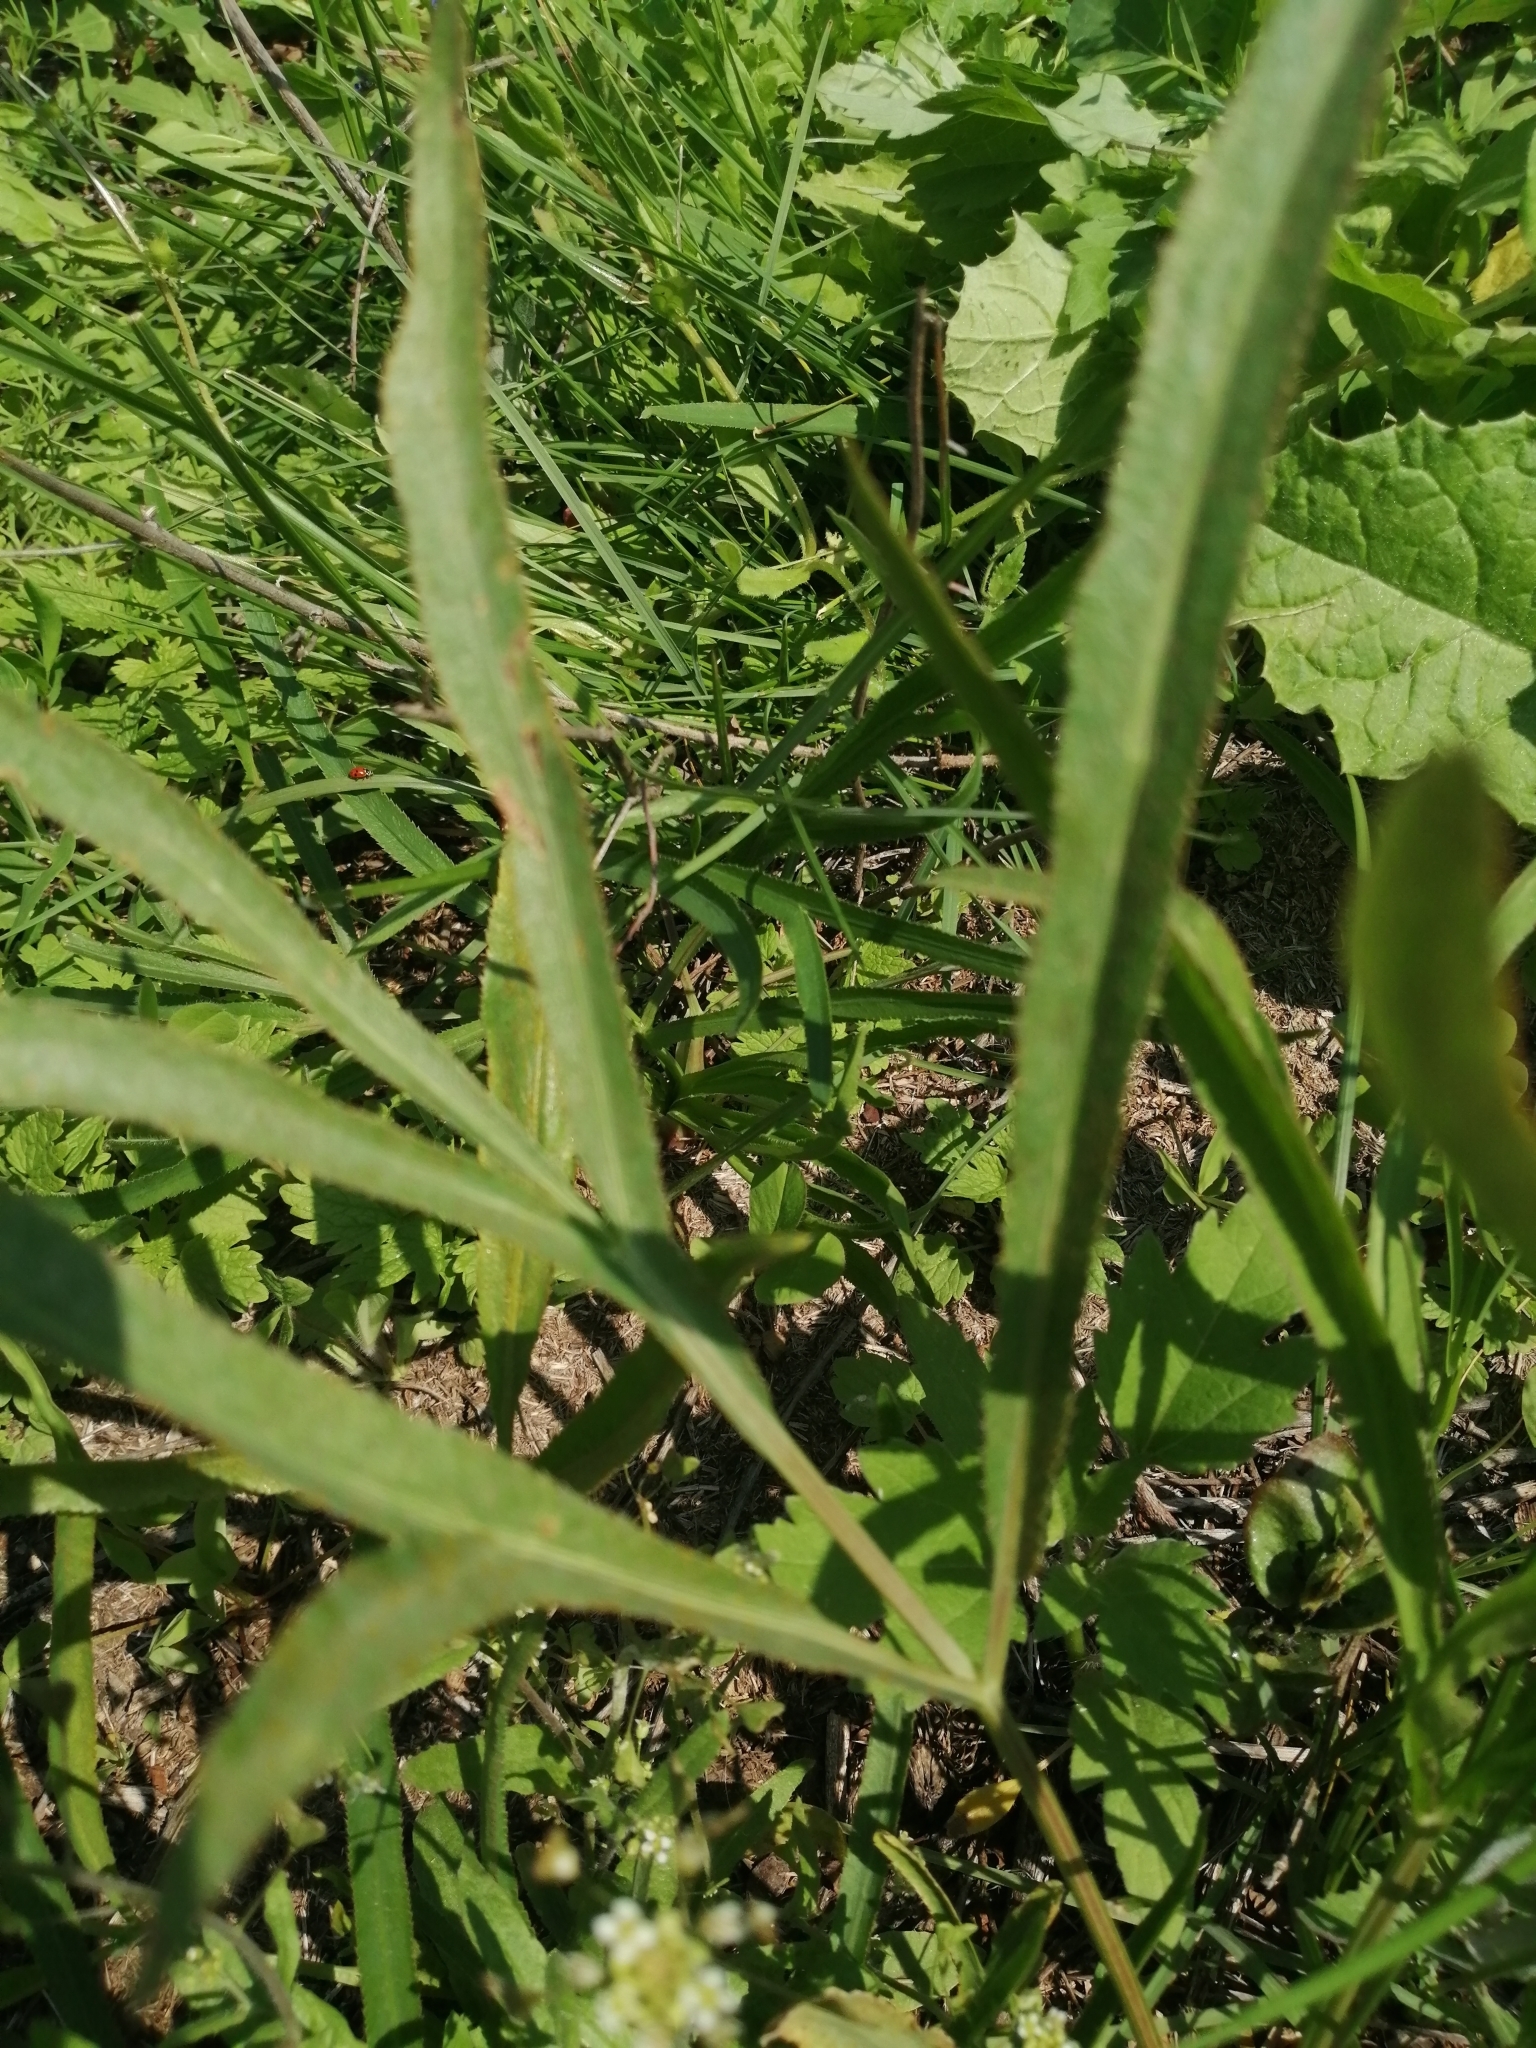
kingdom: Plantae
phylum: Tracheophyta
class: Magnoliopsida
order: Apiales
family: Apiaceae
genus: Falcaria
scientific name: Falcaria vulgaris
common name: Longleaf
